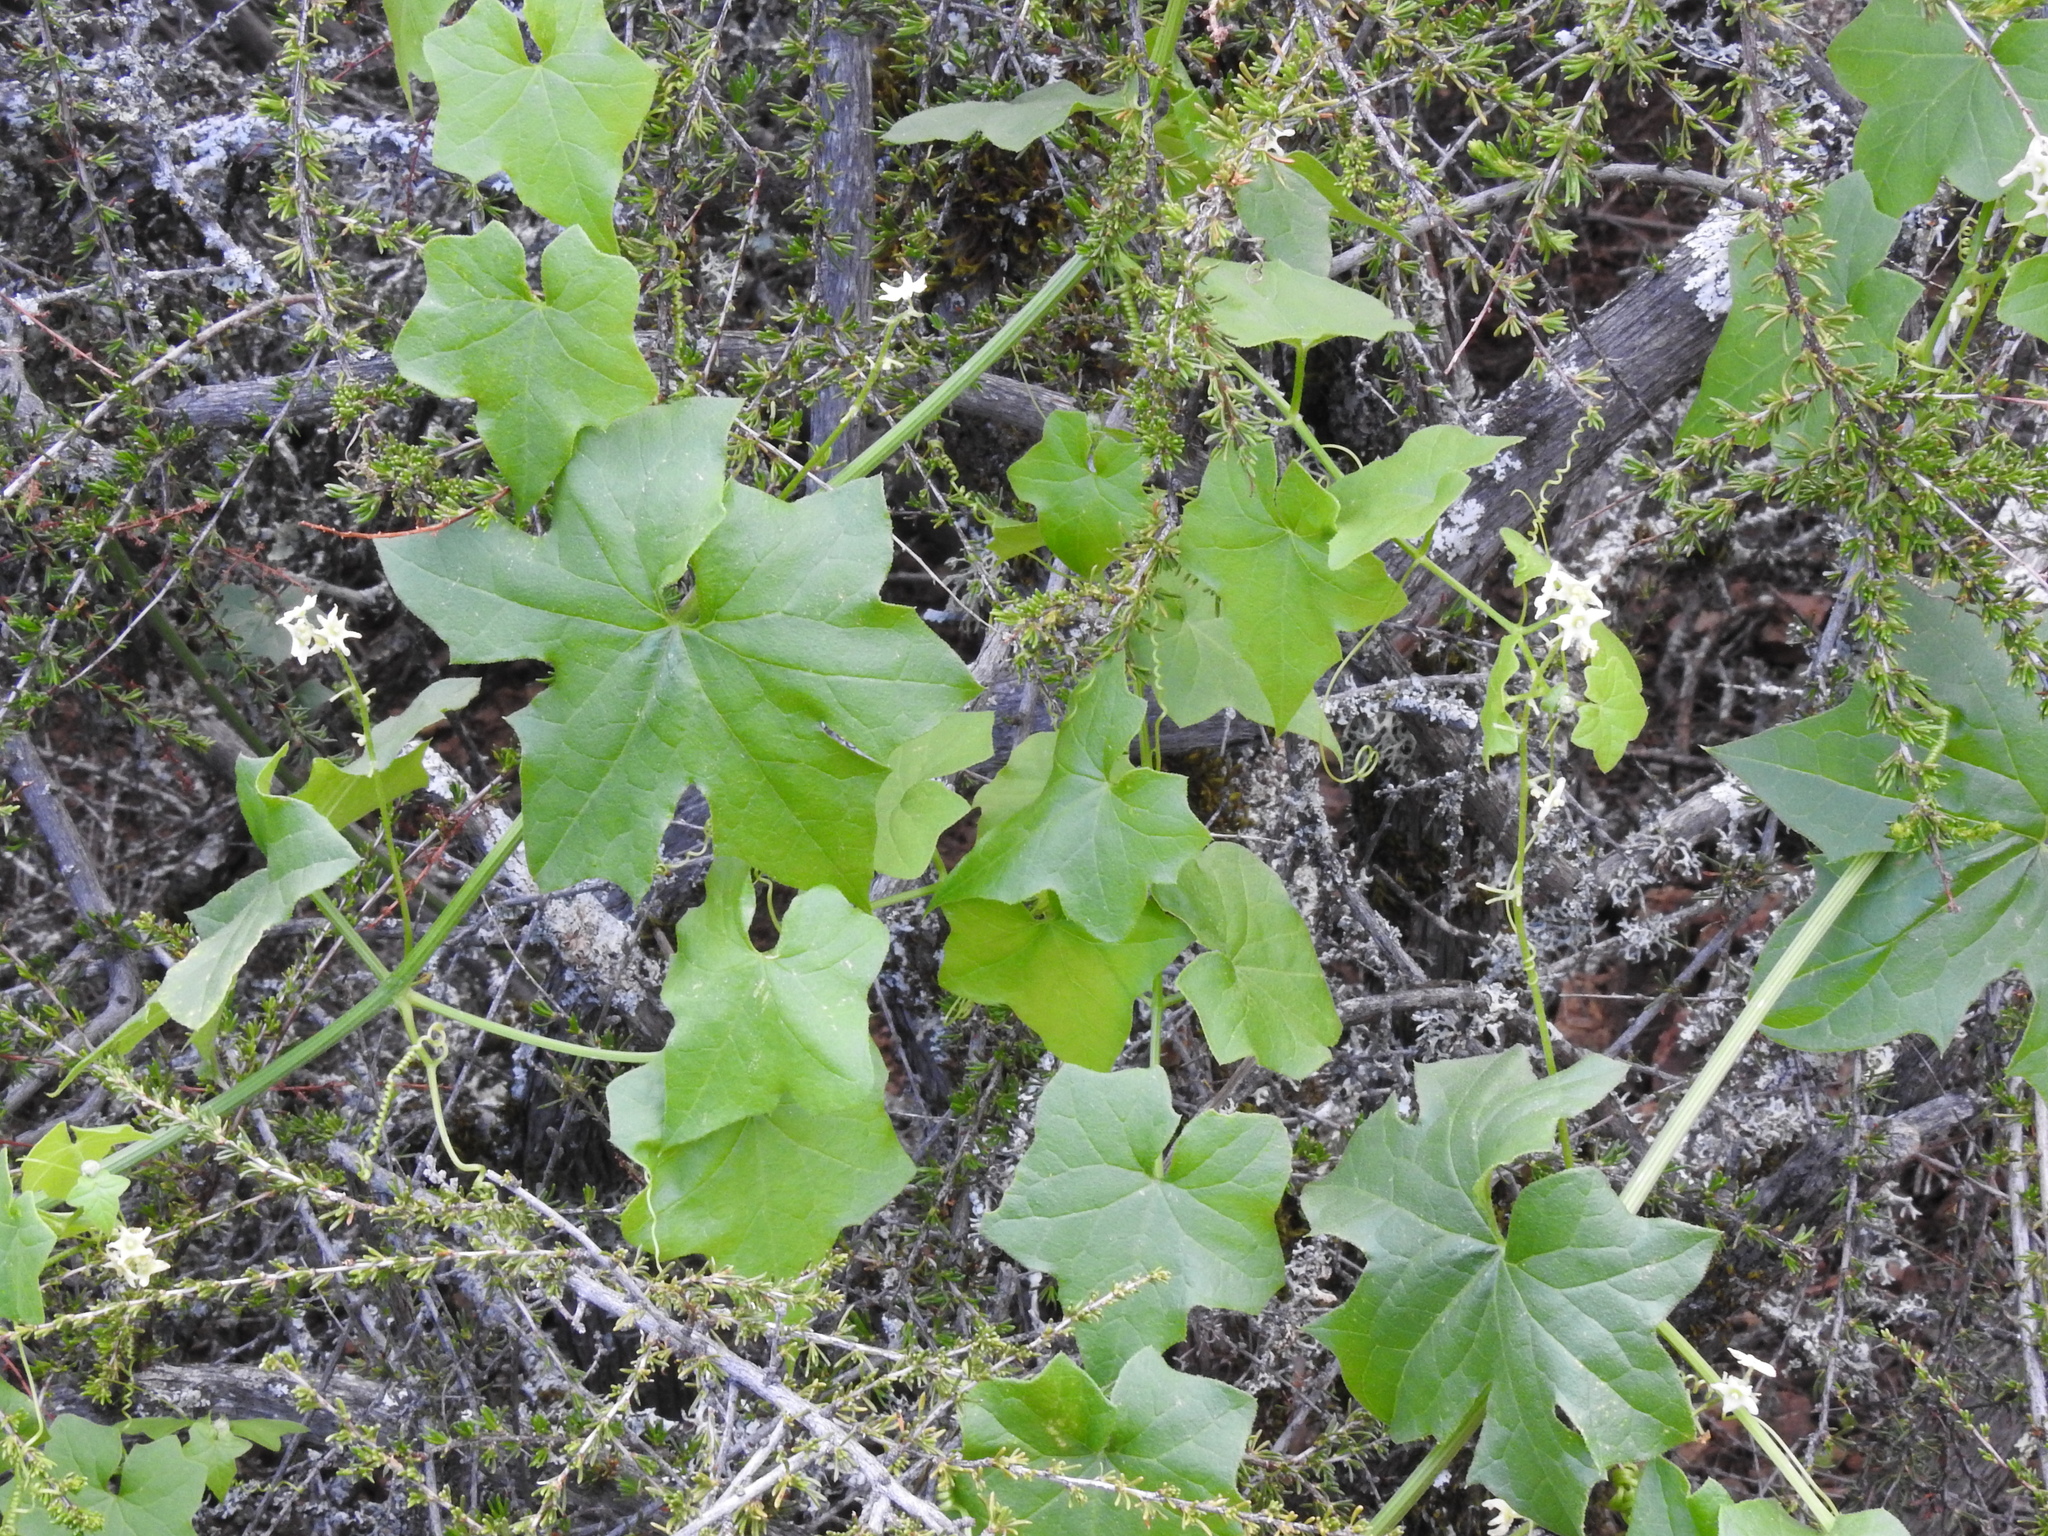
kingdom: Plantae
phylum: Tracheophyta
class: Magnoliopsida
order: Cucurbitales
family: Cucurbitaceae
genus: Marah
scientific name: Marah fabacea
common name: California manroot
